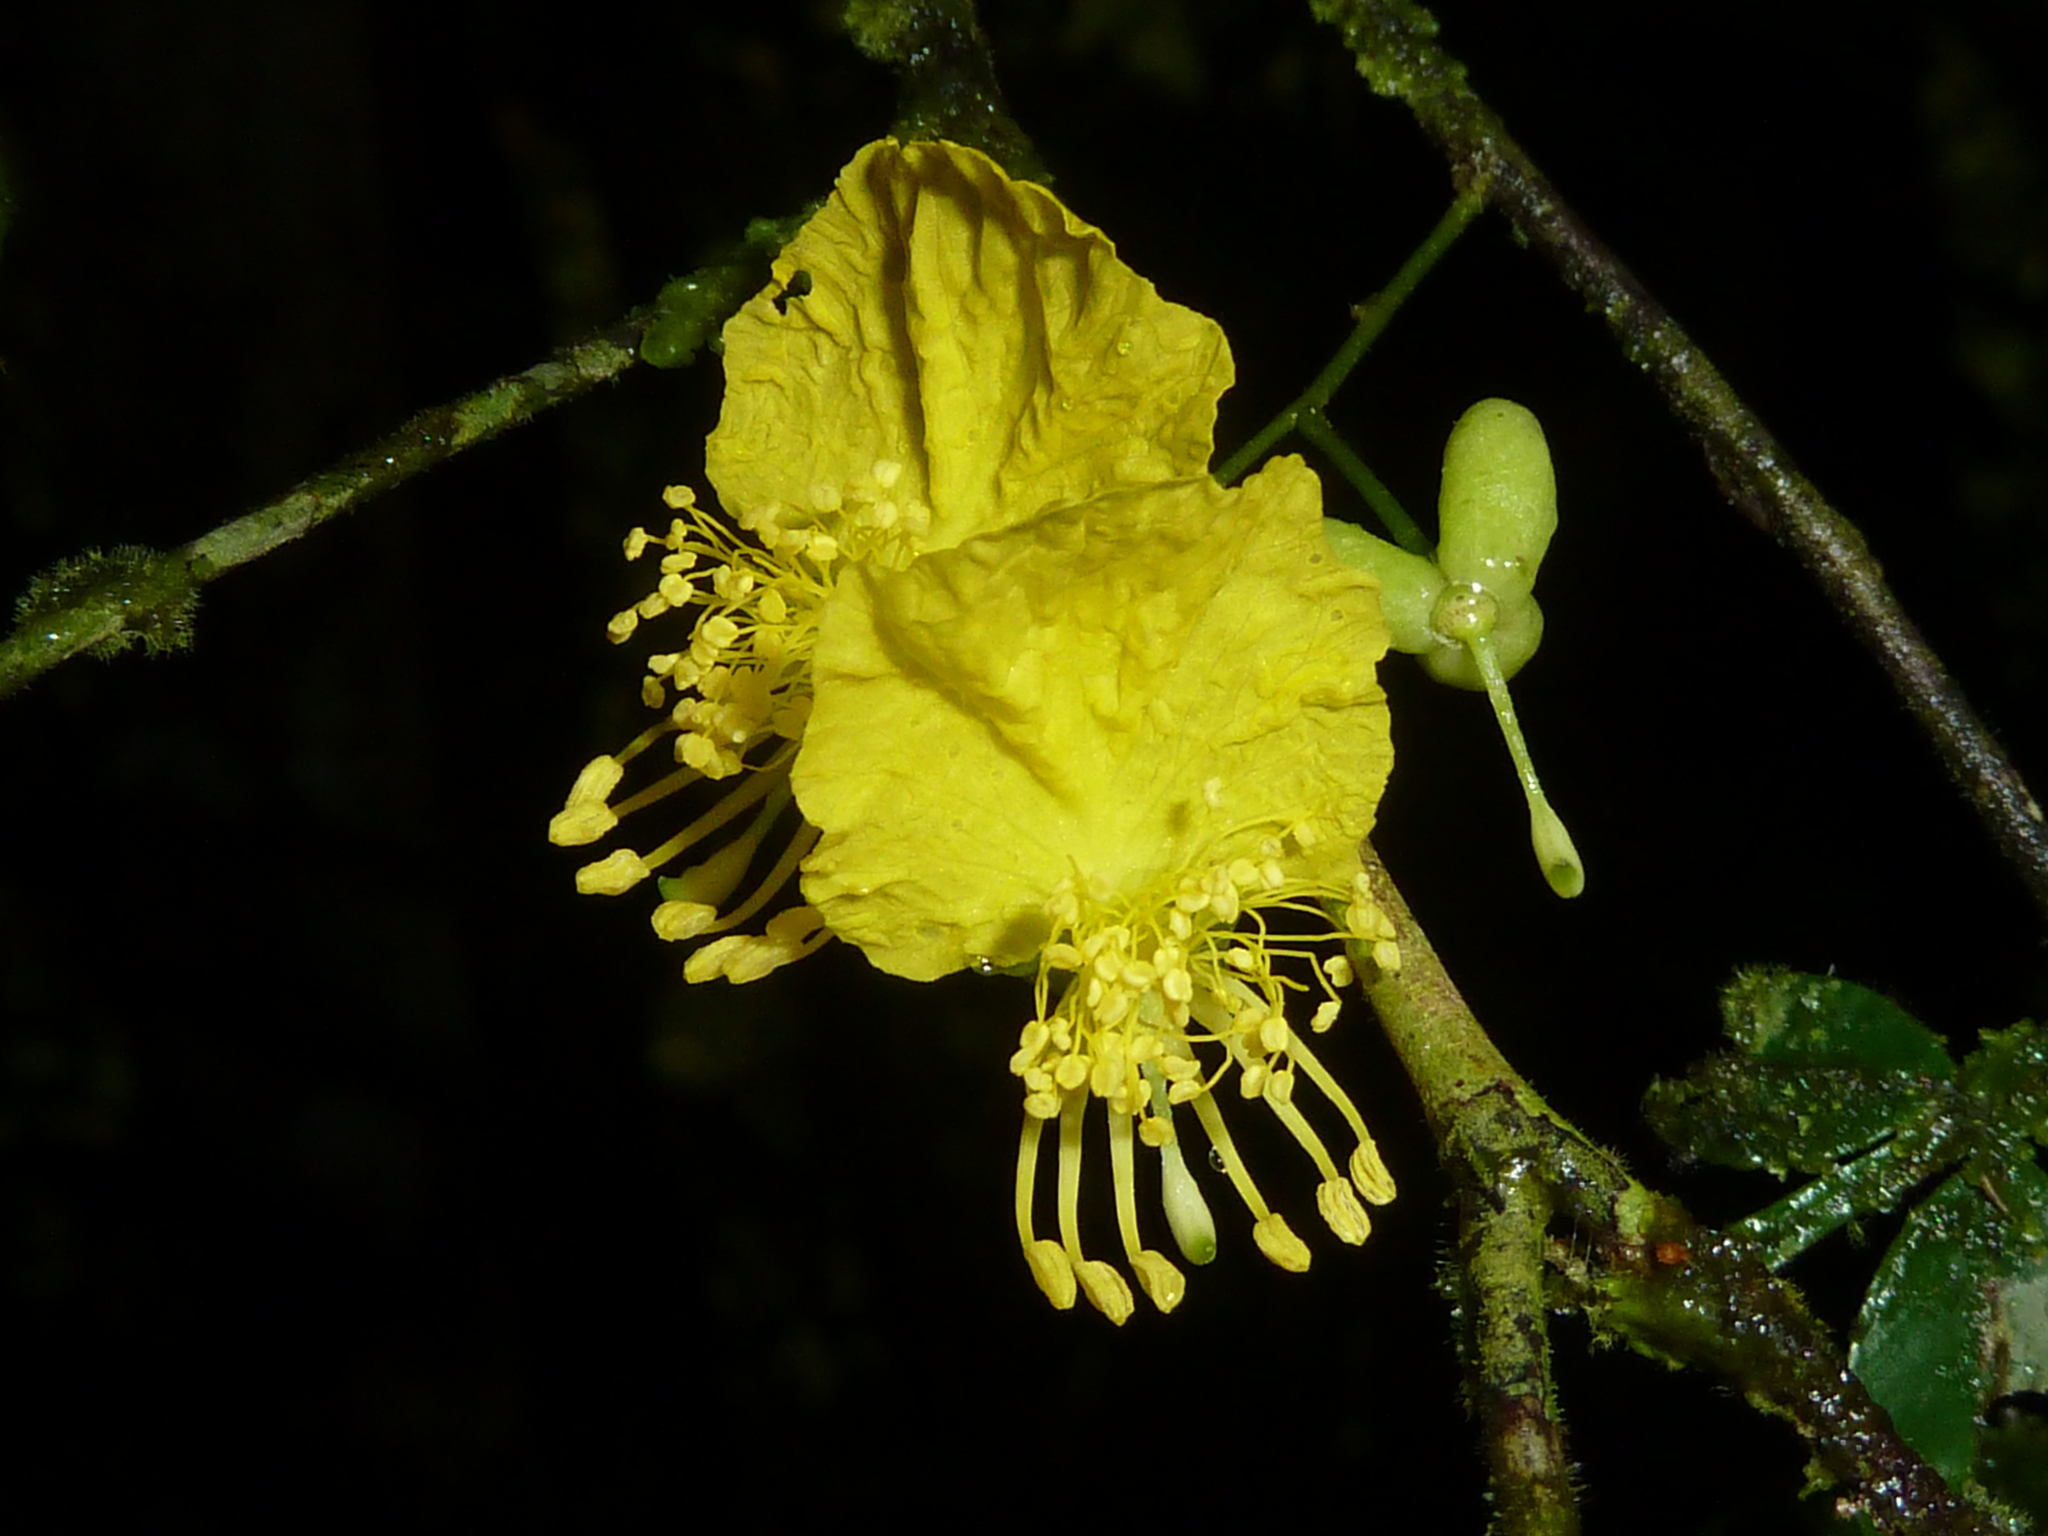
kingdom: Plantae
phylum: Tracheophyta
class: Magnoliopsida
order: Fabales
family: Fabaceae
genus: Swartzia
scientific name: Swartzia picramnioides
